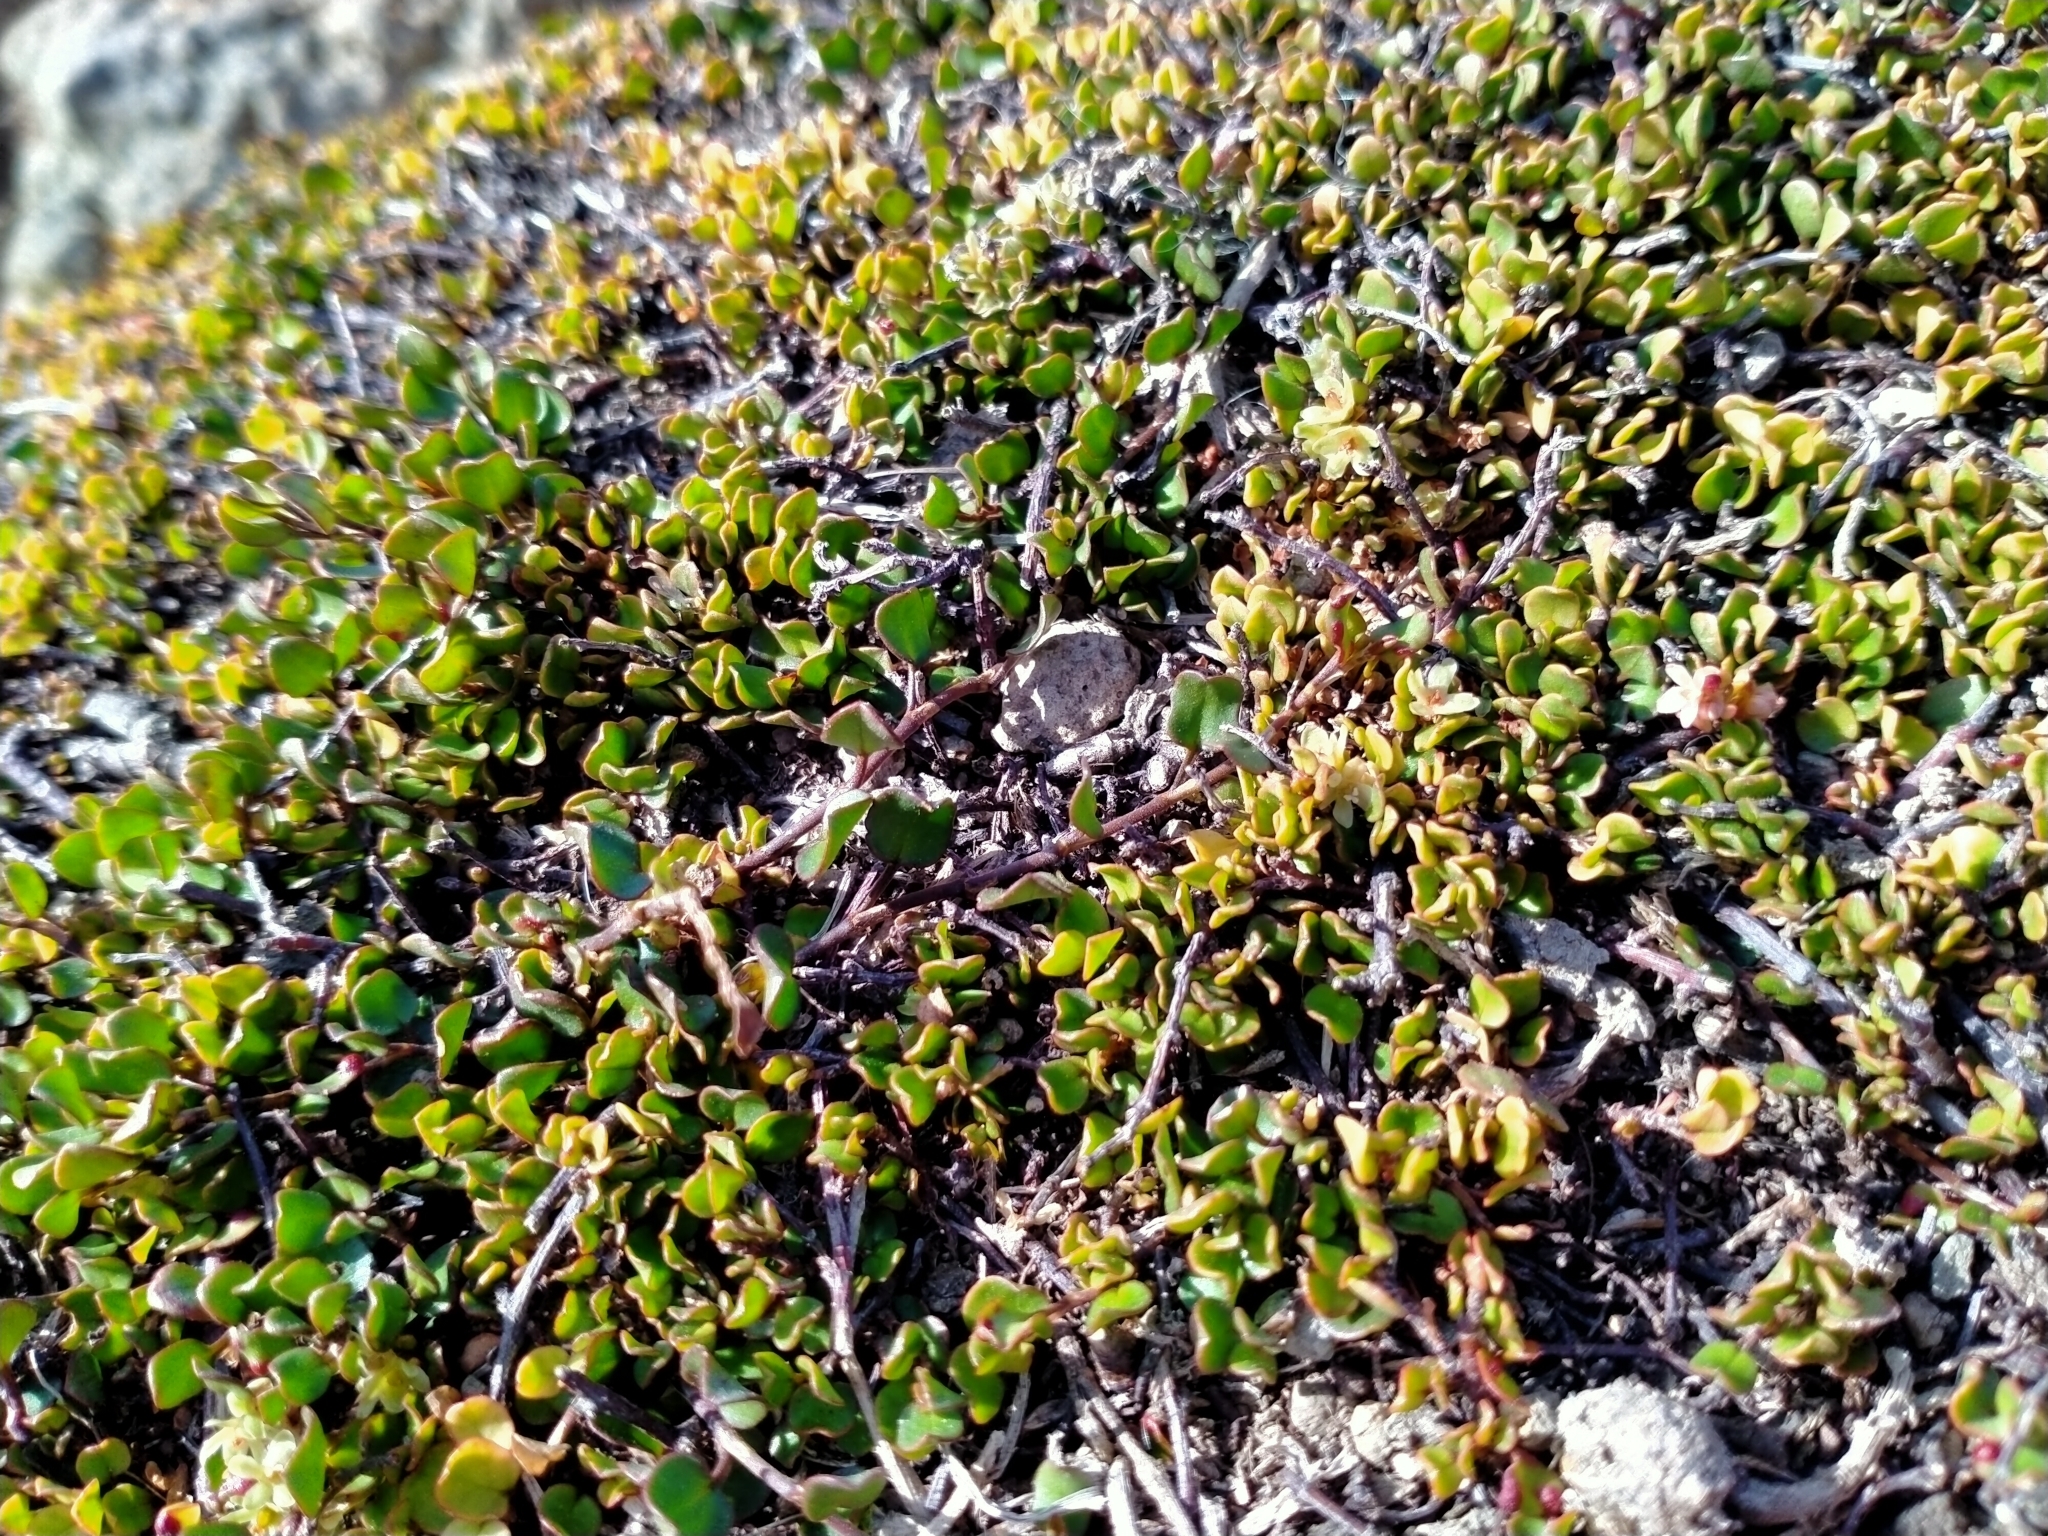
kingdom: Plantae
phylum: Tracheophyta
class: Magnoliopsida
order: Caryophyllales
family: Polygonaceae
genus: Muehlenbeckia
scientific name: Muehlenbeckia axillaris
